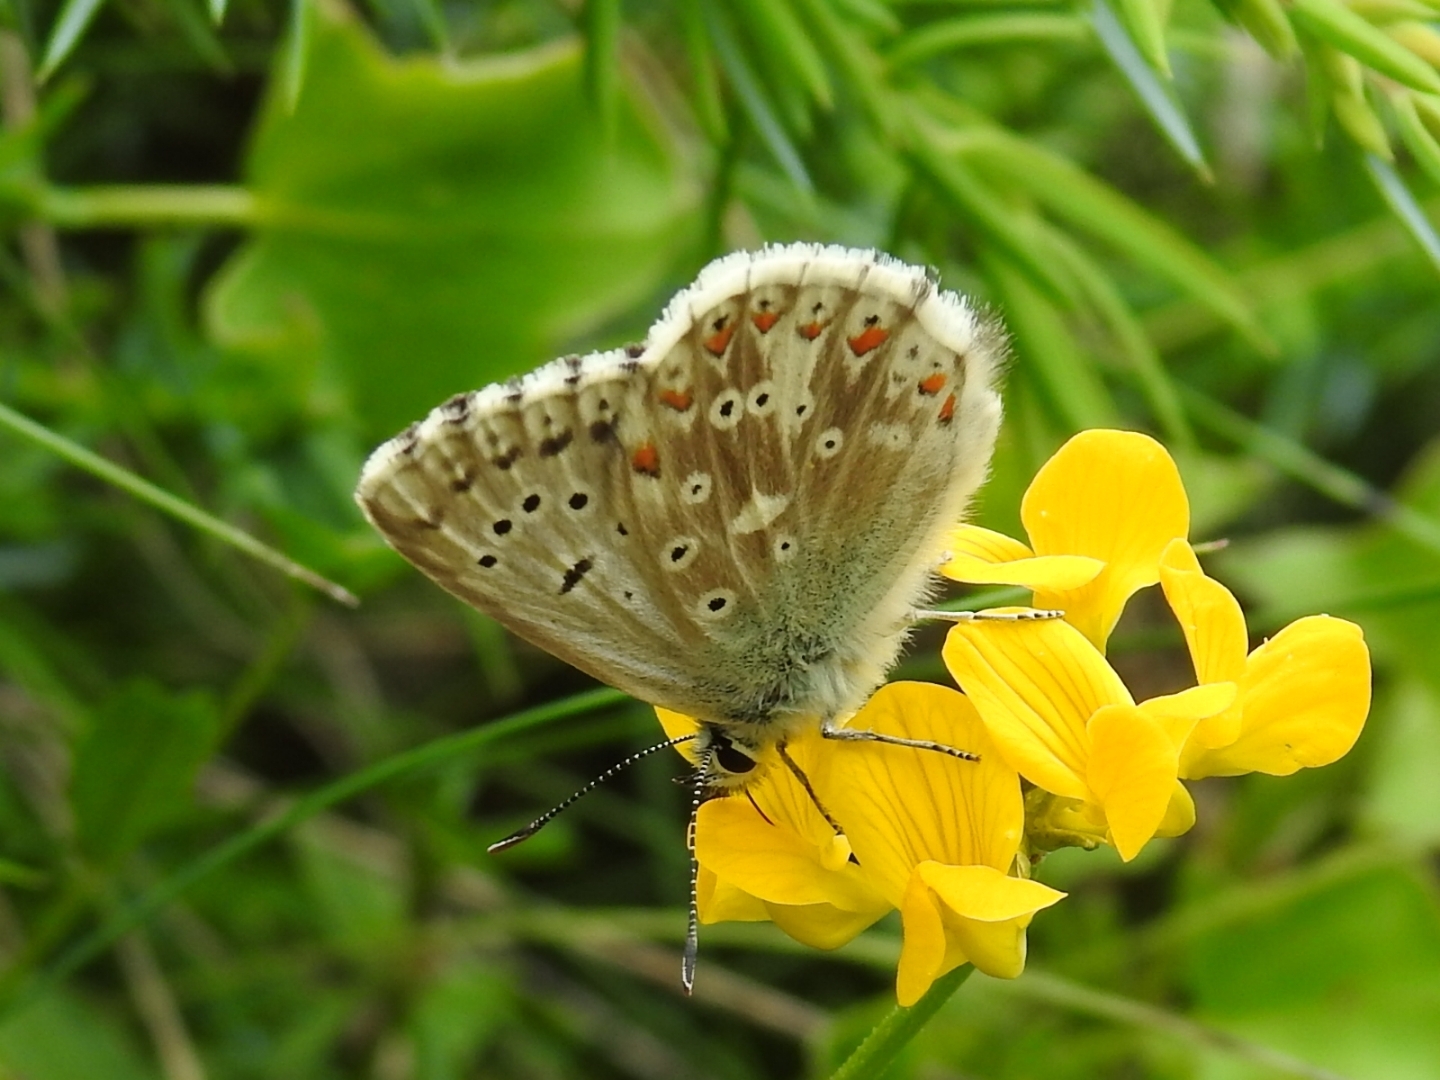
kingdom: Animalia
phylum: Arthropoda
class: Insecta
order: Lepidoptera
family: Lycaenidae
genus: Lysandra
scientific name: Lysandra coridon
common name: Chalkhill blue
